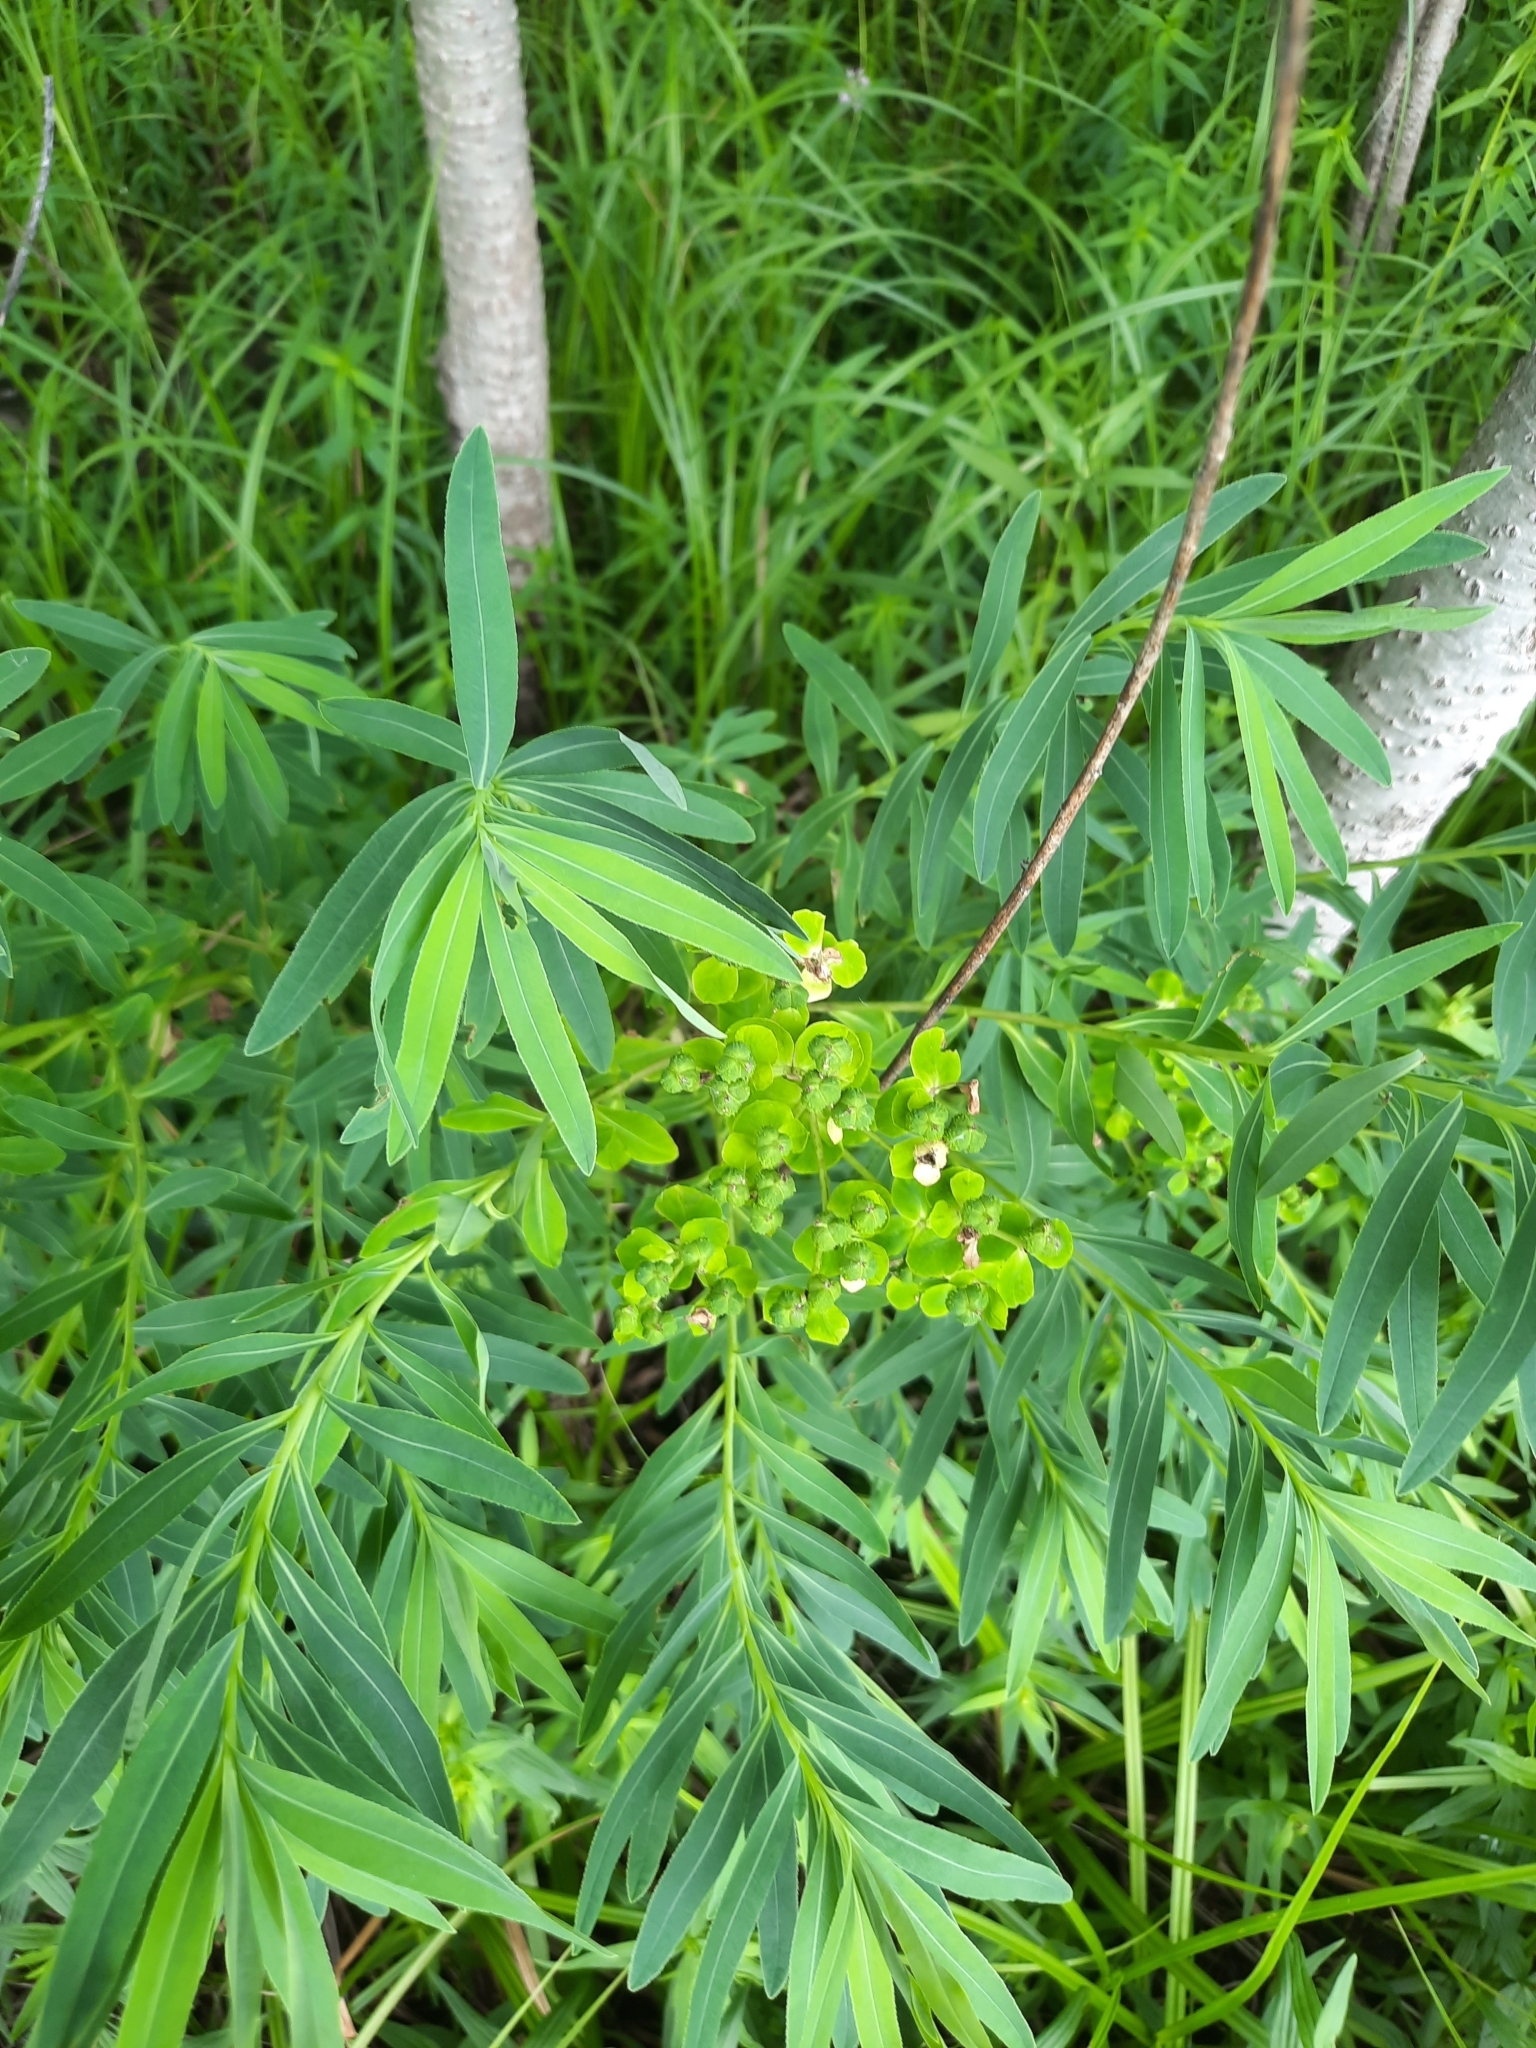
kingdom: Plantae
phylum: Tracheophyta
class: Magnoliopsida
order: Malpighiales
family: Euphorbiaceae
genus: Euphorbia
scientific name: Euphorbia palustris
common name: Marsh spurge
